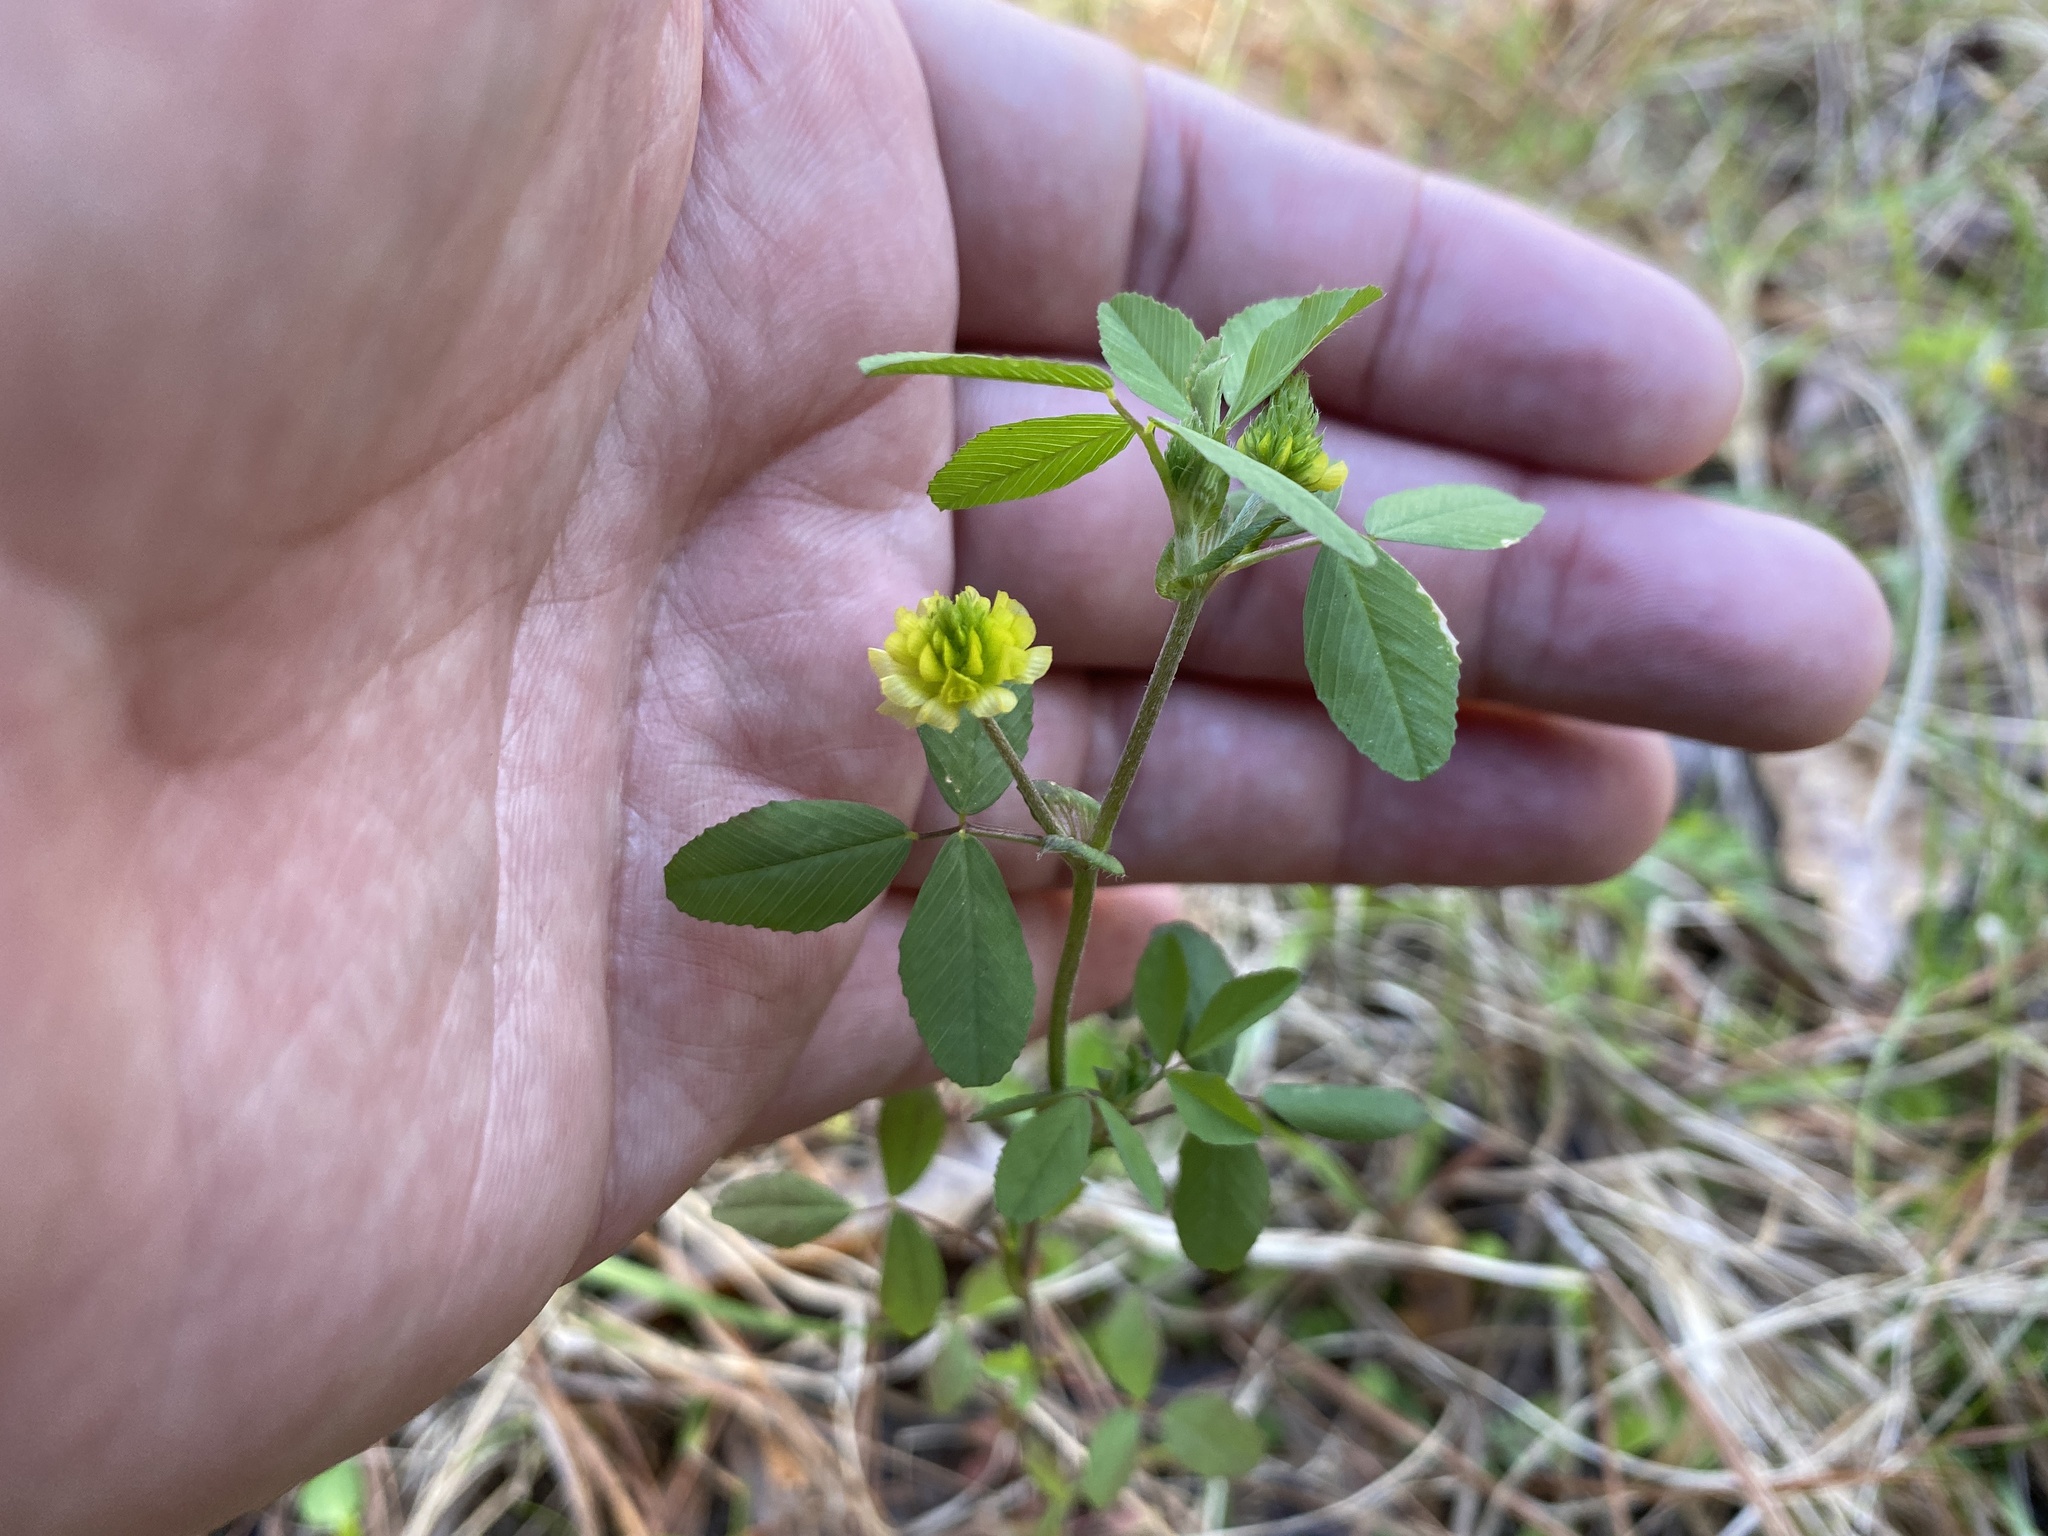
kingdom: Plantae
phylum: Tracheophyta
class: Magnoliopsida
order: Fabales
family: Fabaceae
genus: Trifolium
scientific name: Trifolium campestre
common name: Field clover
